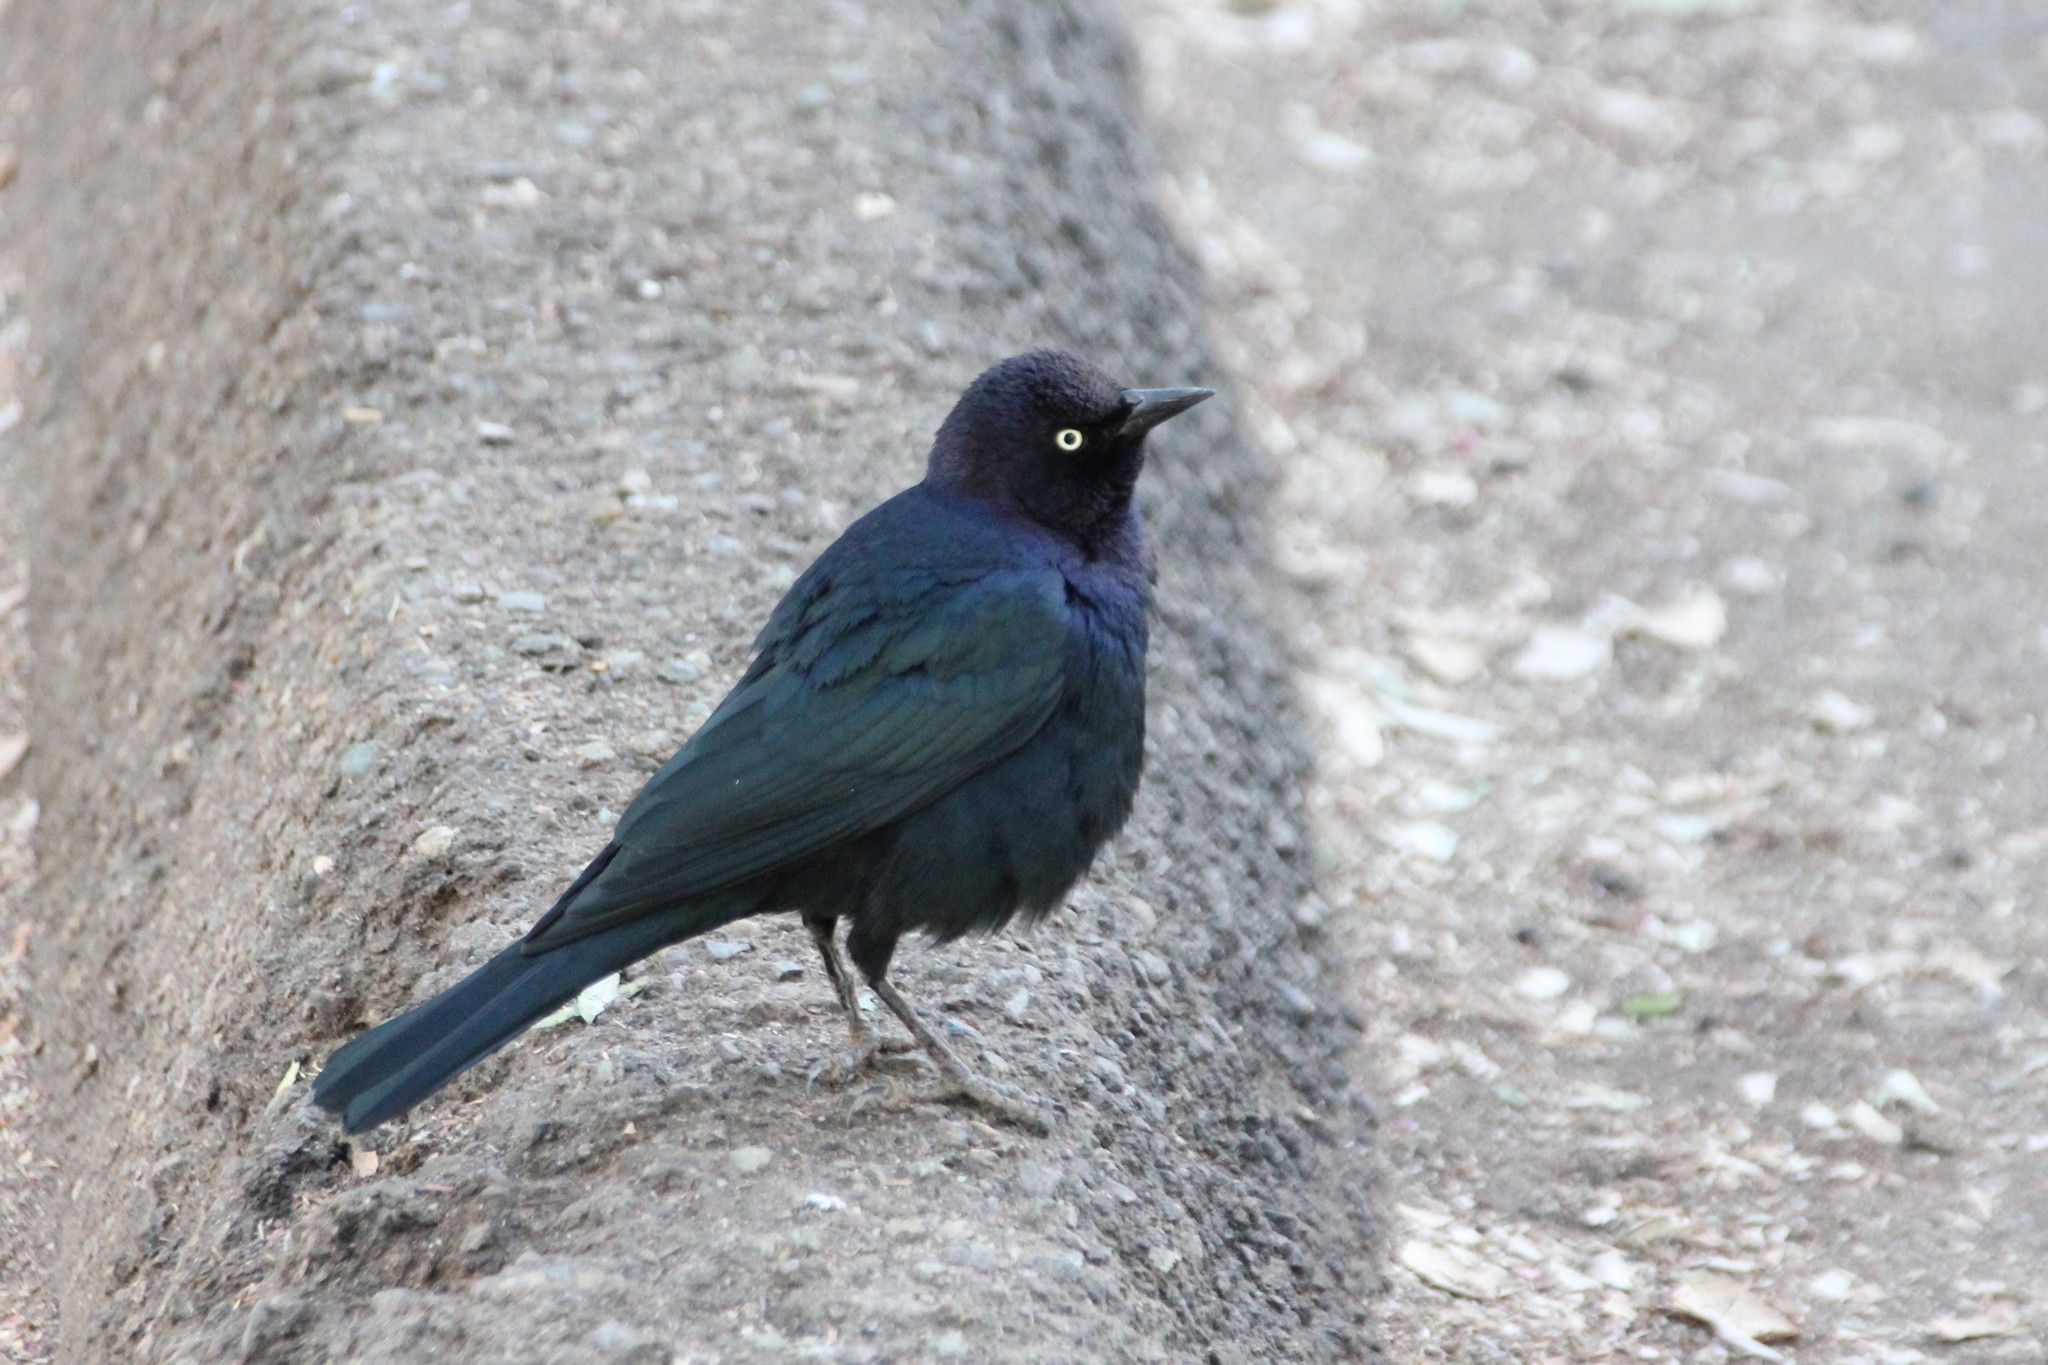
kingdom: Animalia
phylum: Chordata
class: Aves
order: Passeriformes
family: Icteridae
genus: Euphagus
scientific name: Euphagus cyanocephalus
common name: Brewer's blackbird
